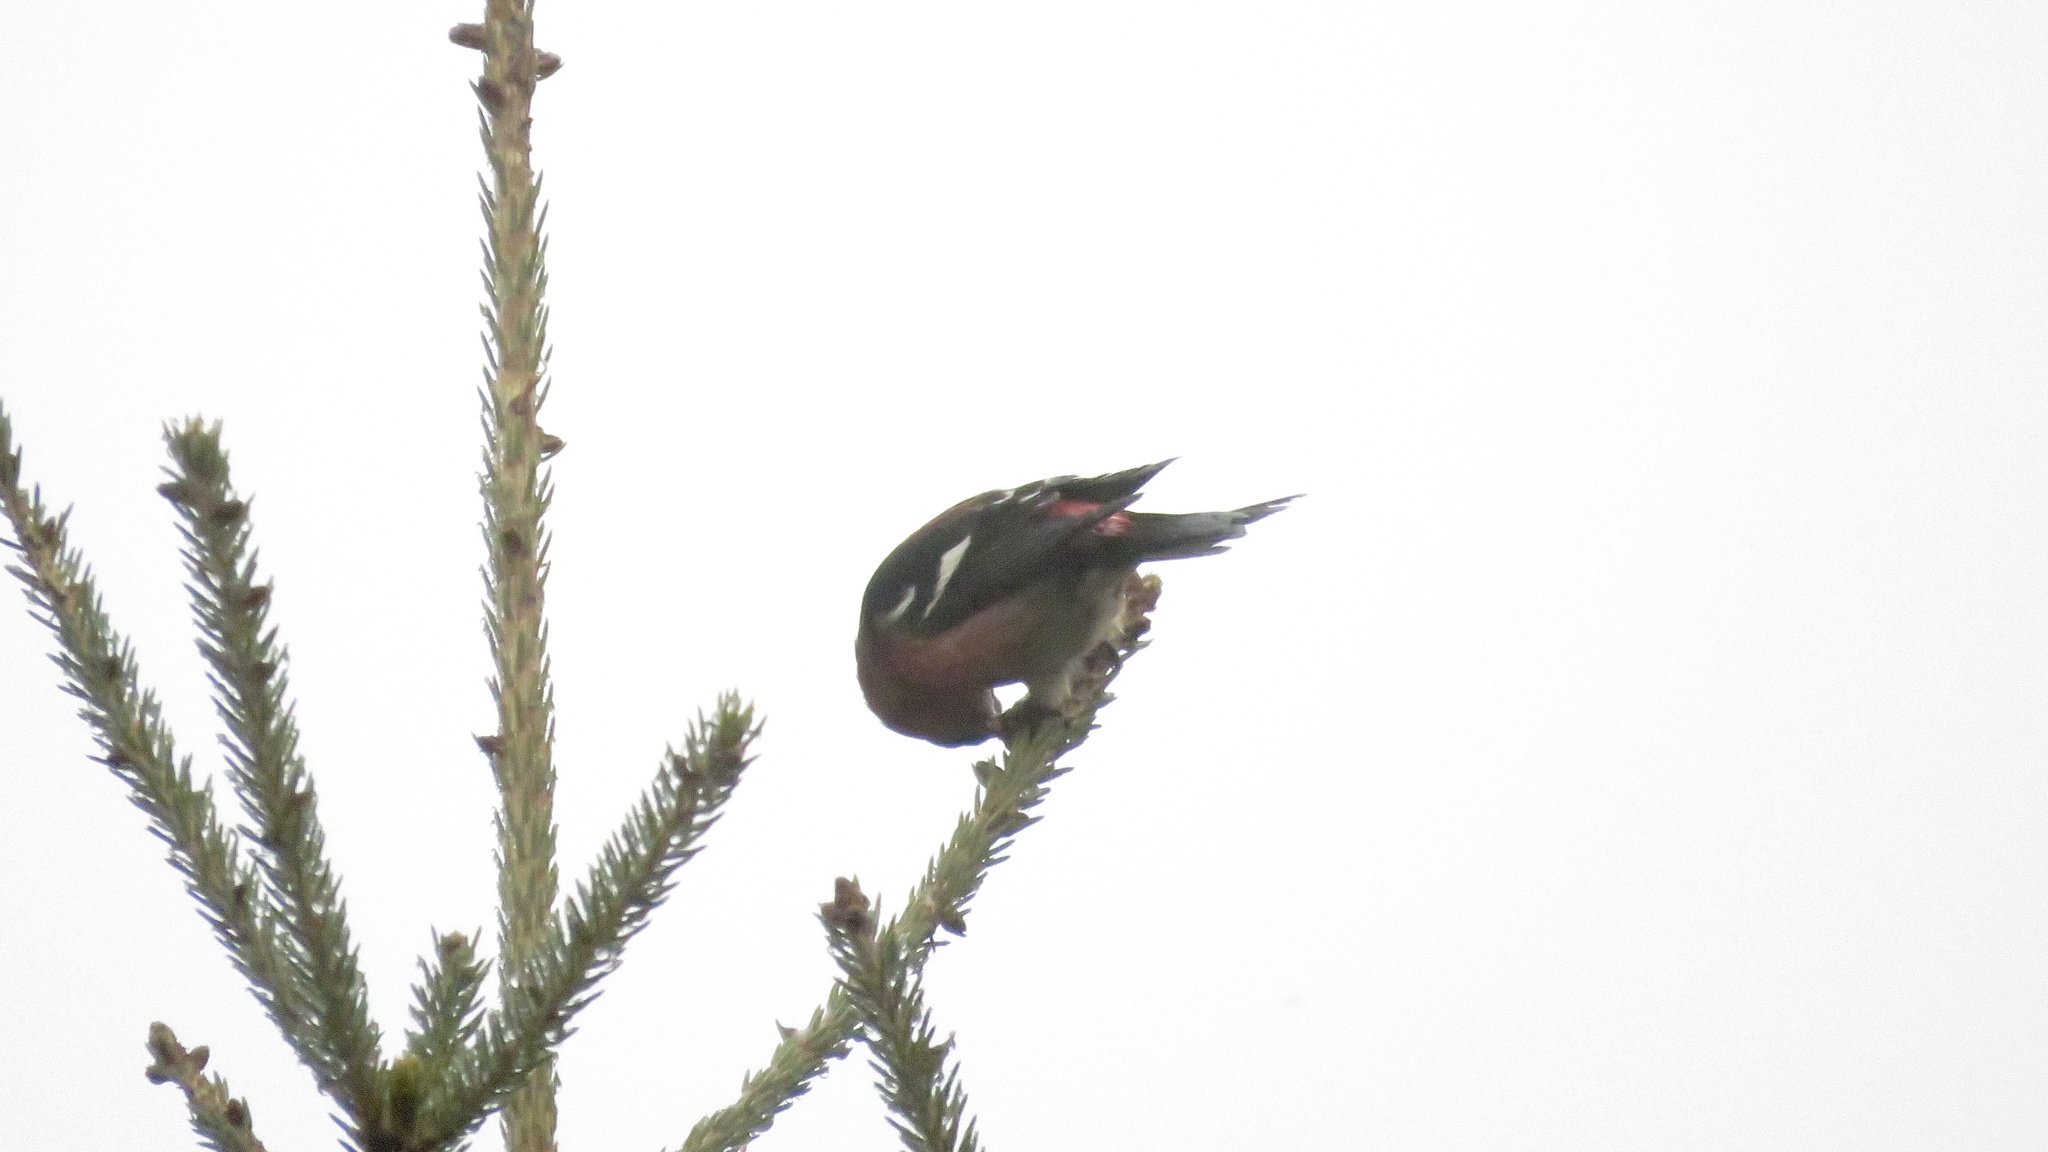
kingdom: Animalia
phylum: Chordata
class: Aves
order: Passeriformes
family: Fringillidae
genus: Loxia
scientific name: Loxia leucoptera
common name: Two-barred crossbill
